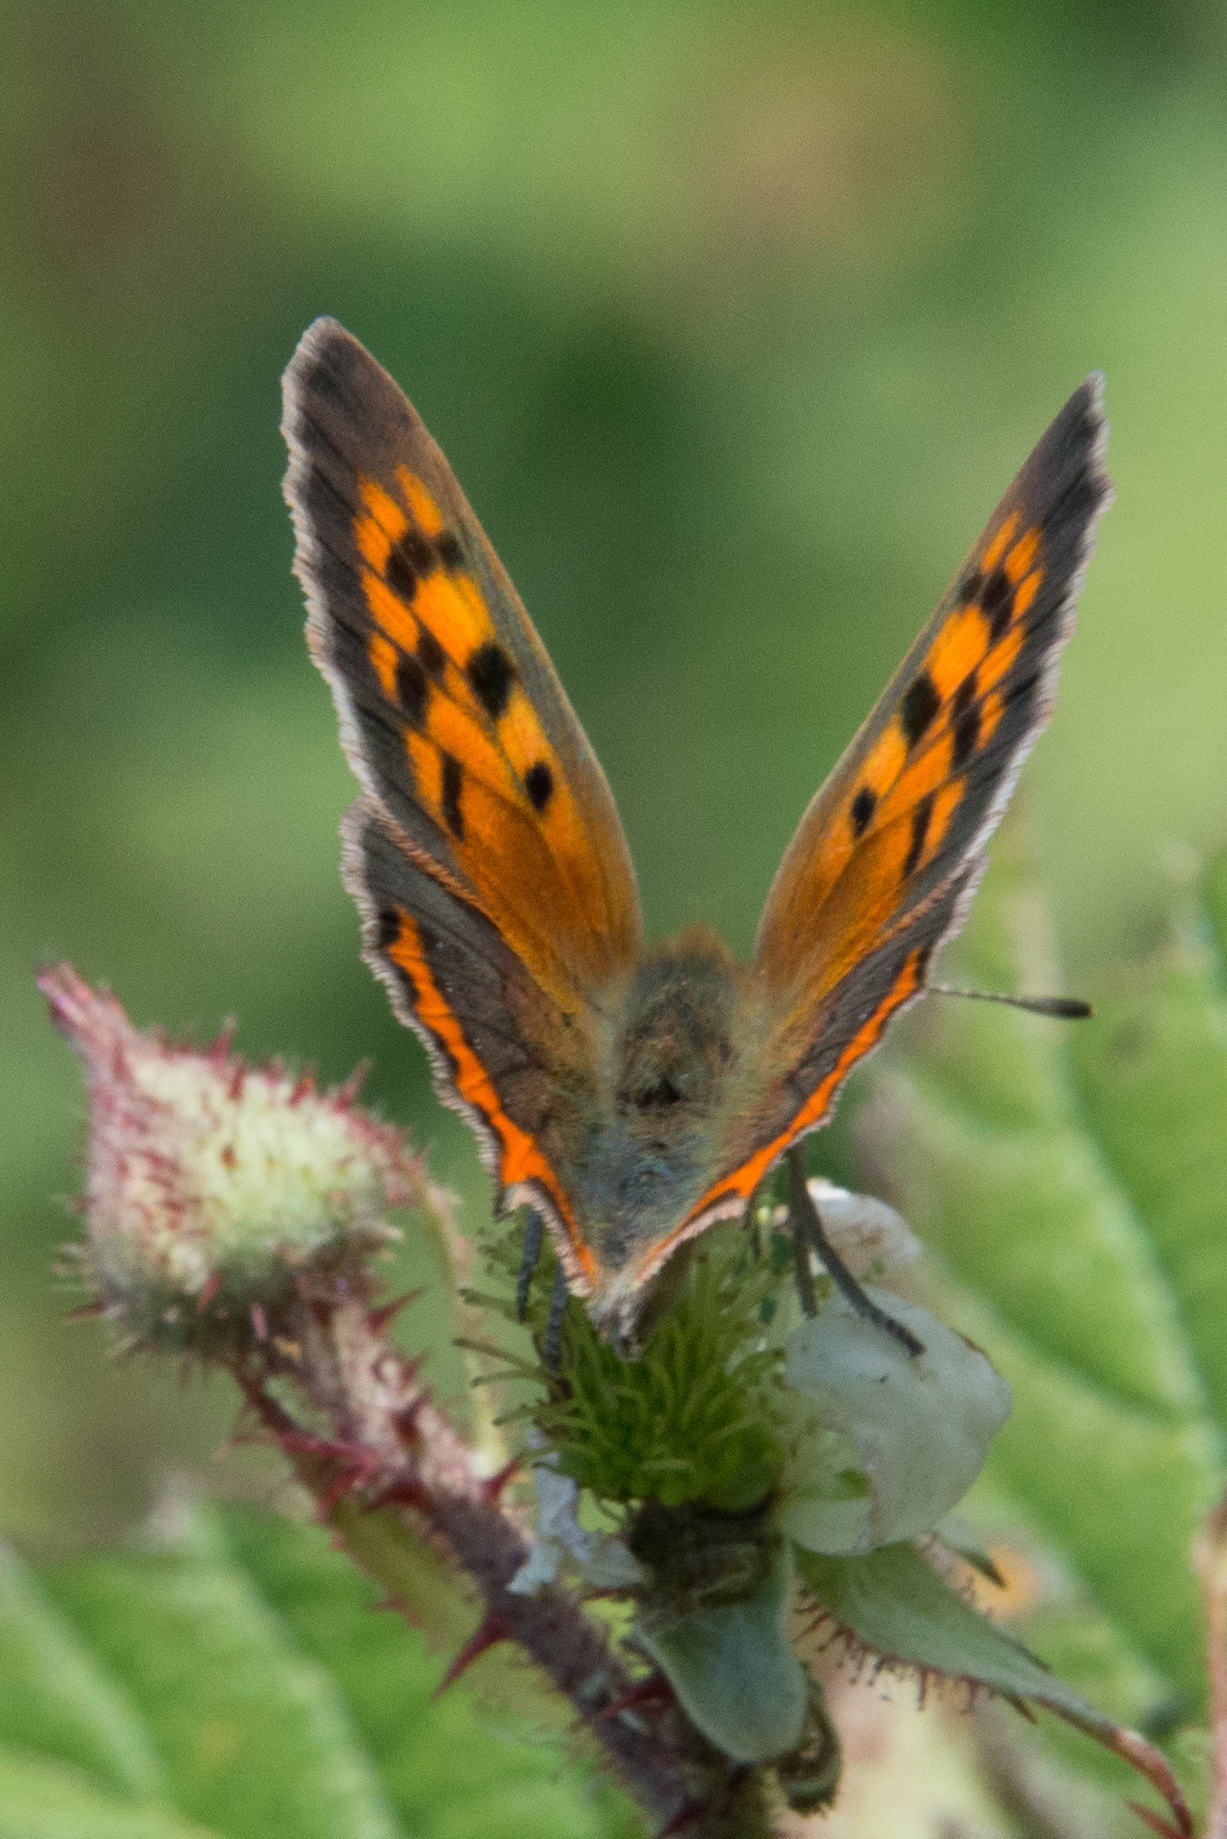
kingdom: Animalia
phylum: Arthropoda
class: Insecta
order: Lepidoptera
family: Lycaenidae
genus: Lycaena
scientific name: Lycaena phlaeas
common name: Small copper
